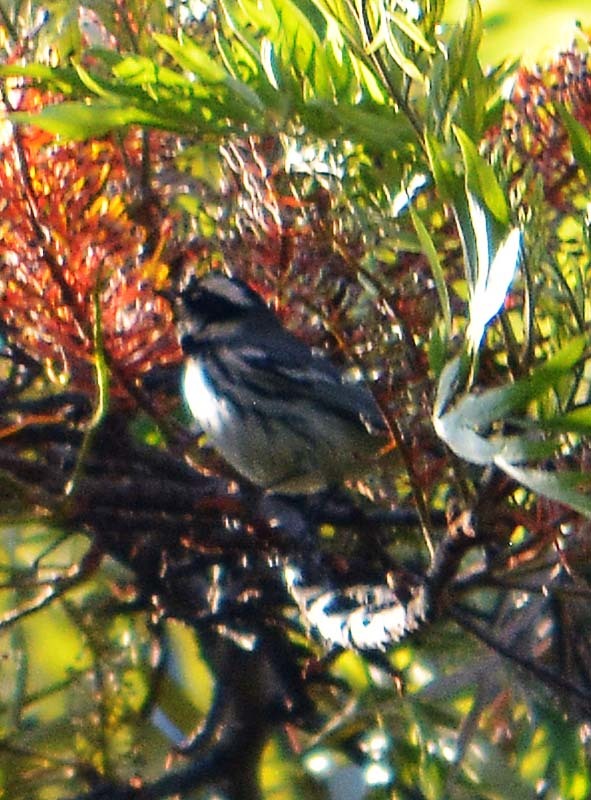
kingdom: Animalia
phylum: Chordata
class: Aves
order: Passeriformes
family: Parulidae
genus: Setophaga
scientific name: Setophaga nigrescens
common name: Black-throated gray warbler
